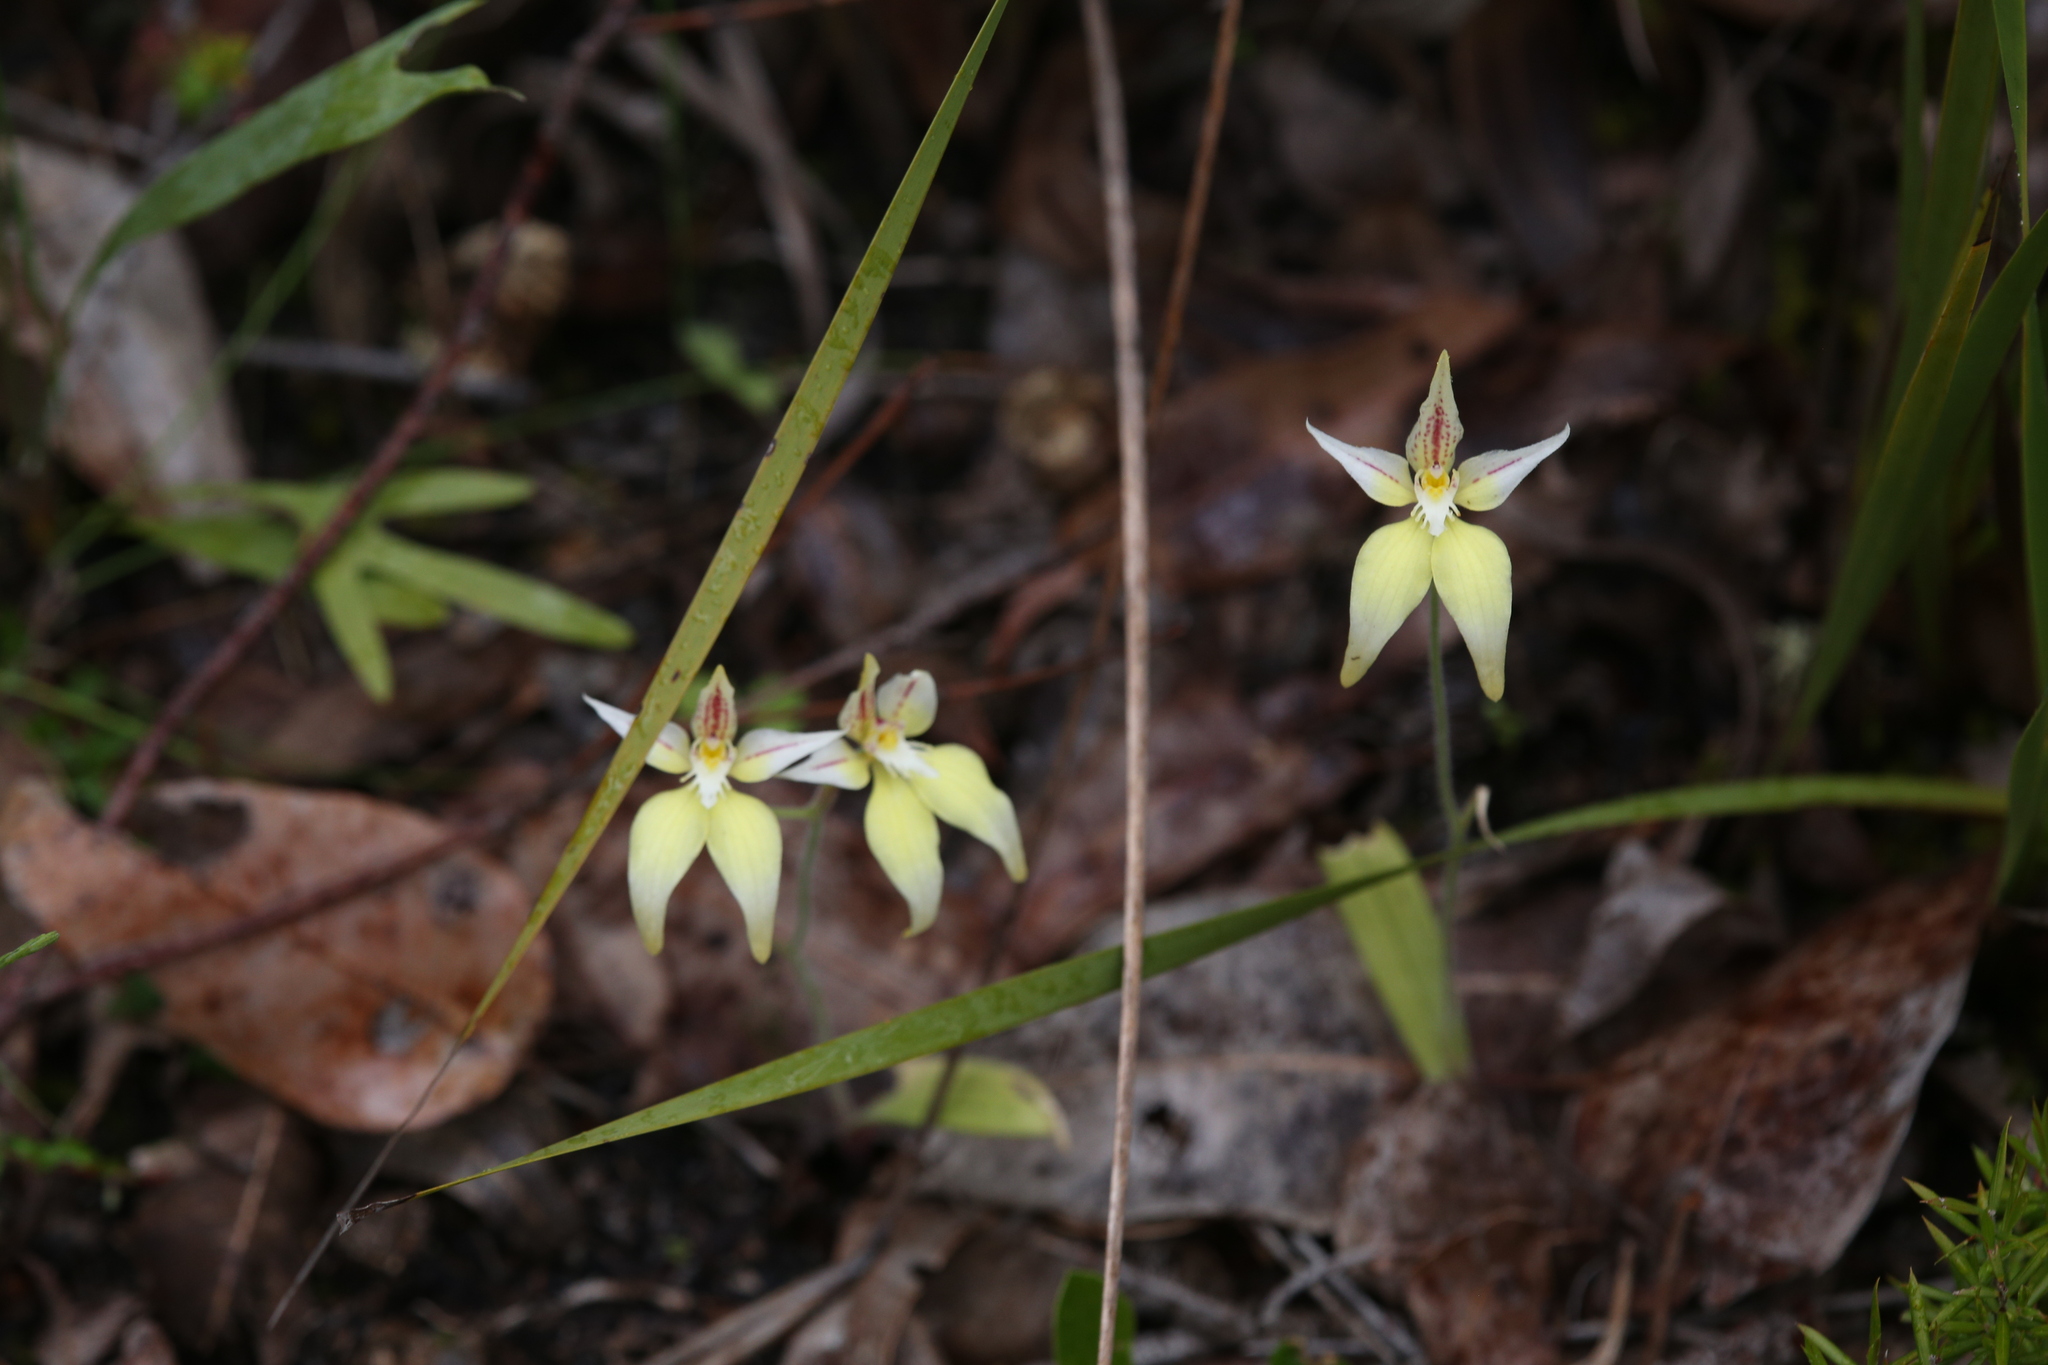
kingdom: Plantae
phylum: Tracheophyta
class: Liliopsida
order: Asparagales
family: Orchidaceae
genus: Caladenia
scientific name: Caladenia flava
